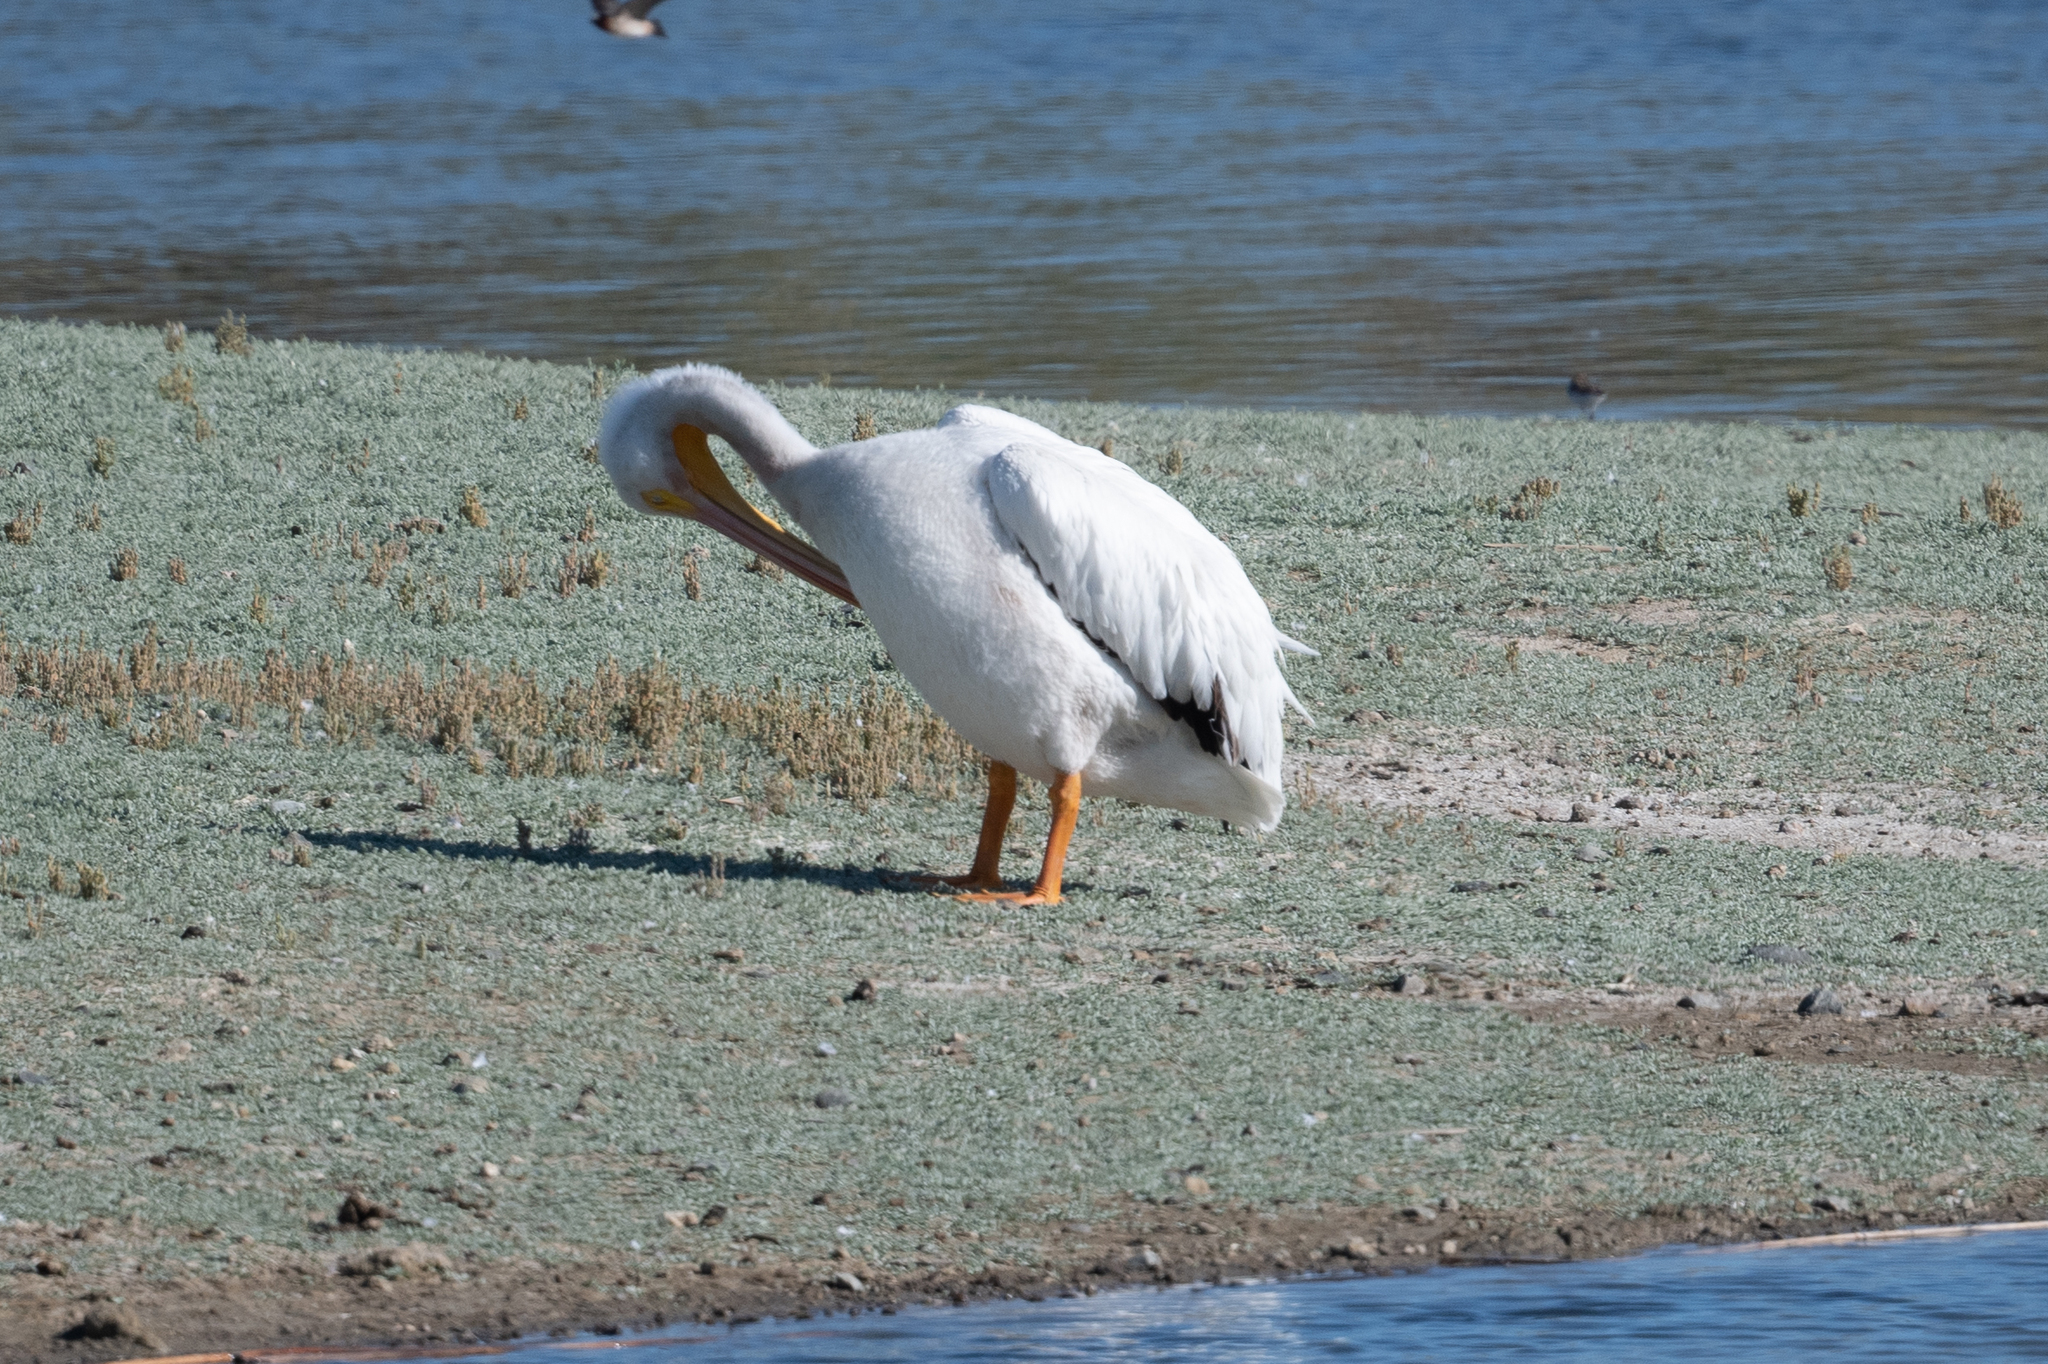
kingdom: Animalia
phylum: Chordata
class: Aves
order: Pelecaniformes
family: Pelecanidae
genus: Pelecanus
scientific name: Pelecanus erythrorhynchos
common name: American white pelican
